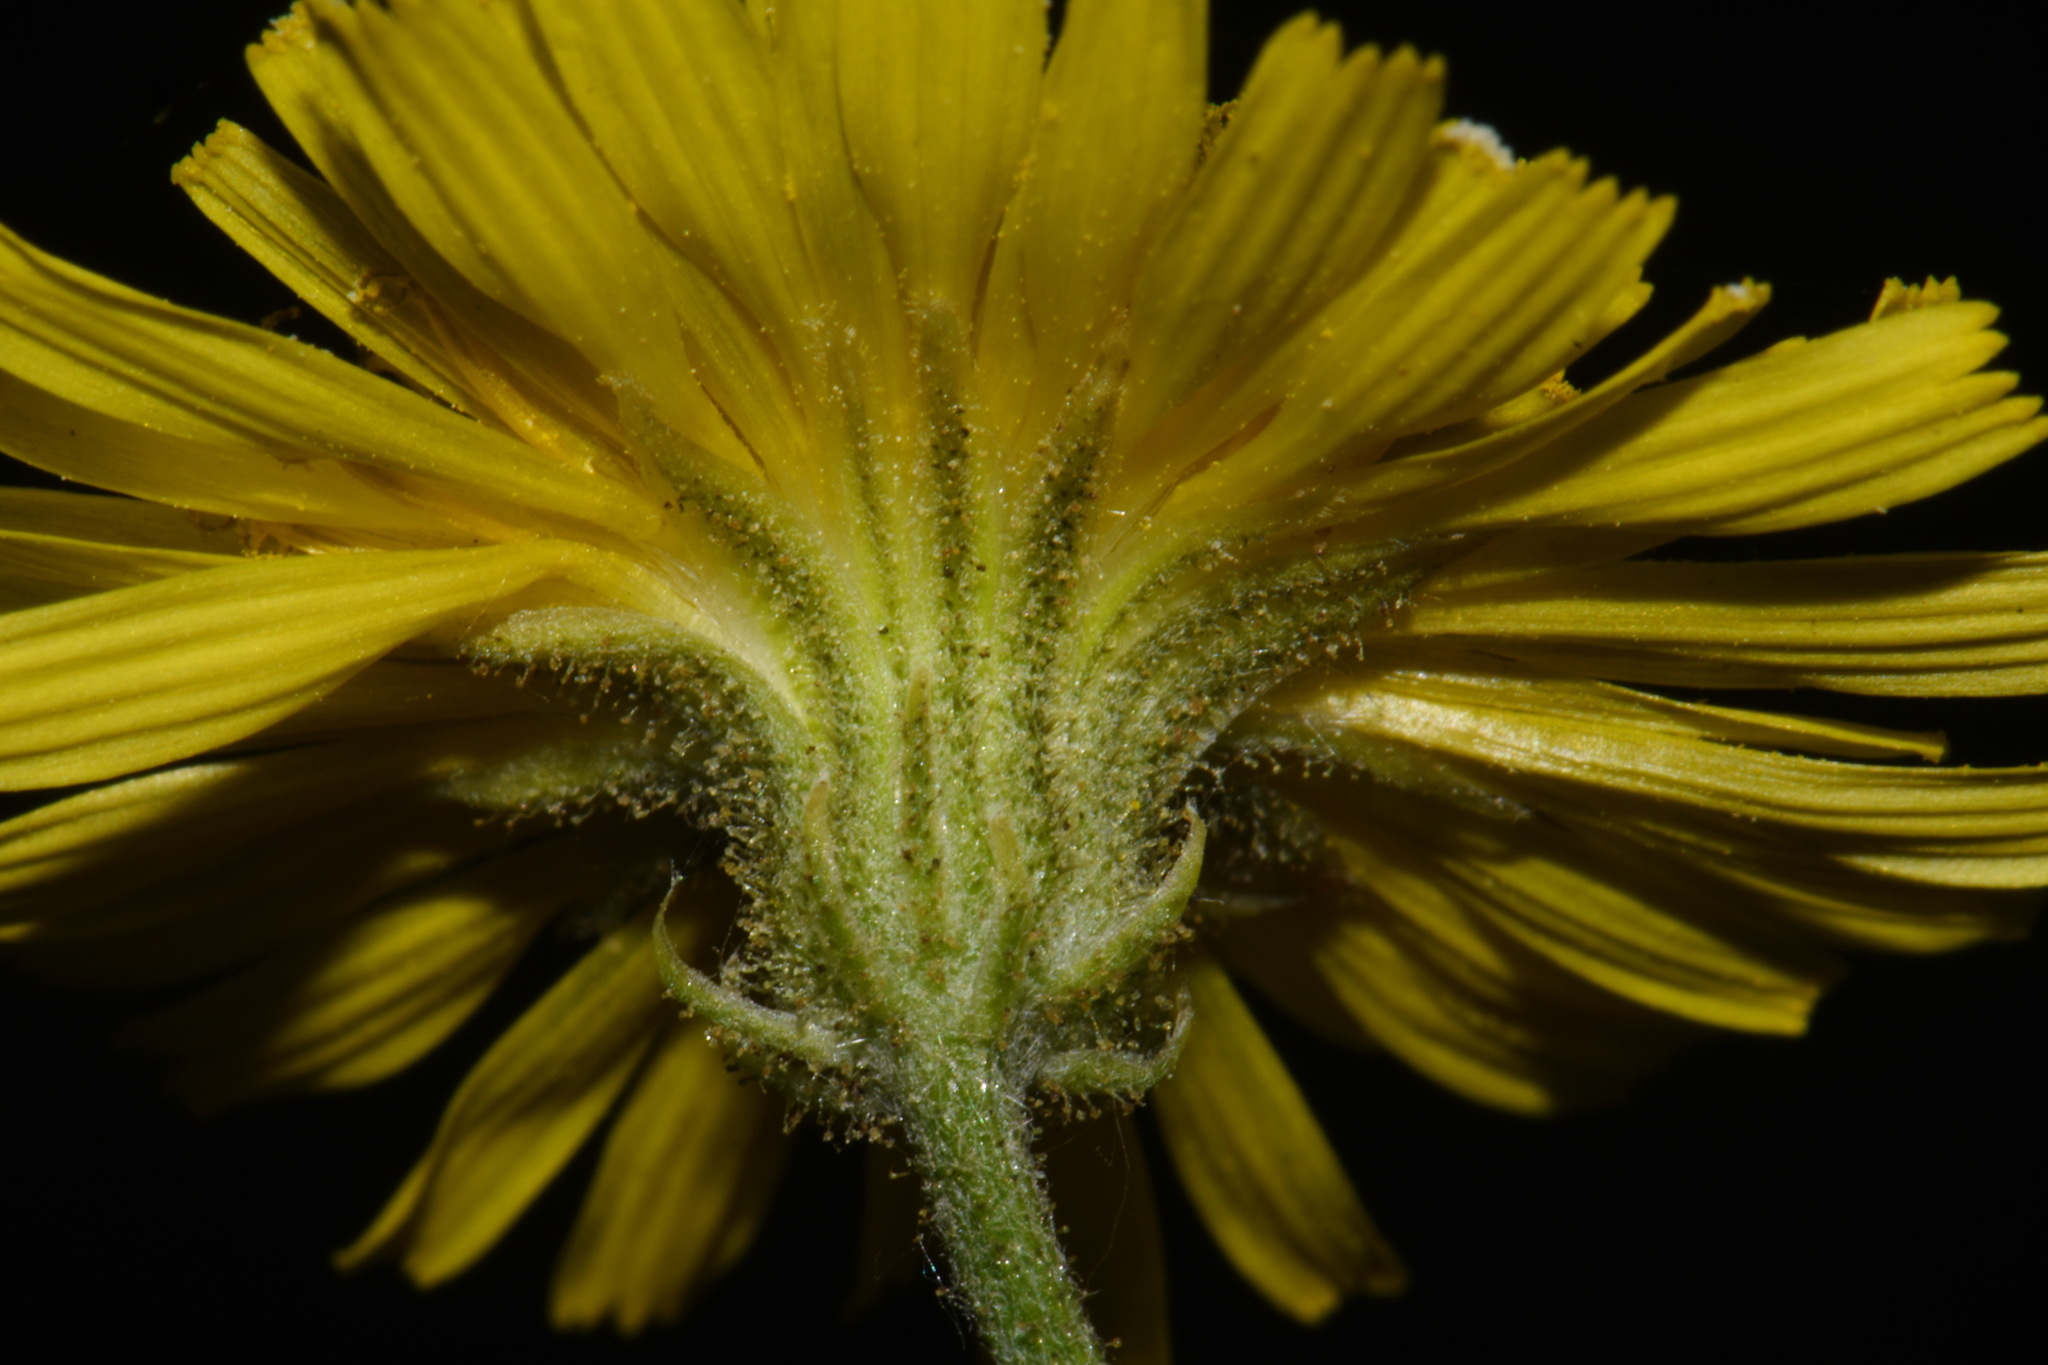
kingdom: Plantae
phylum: Tracheophyta
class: Magnoliopsida
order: Asterales
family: Asteraceae
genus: Crepis
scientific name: Crepis tectorum
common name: Narrow-leaved hawk's-beard
